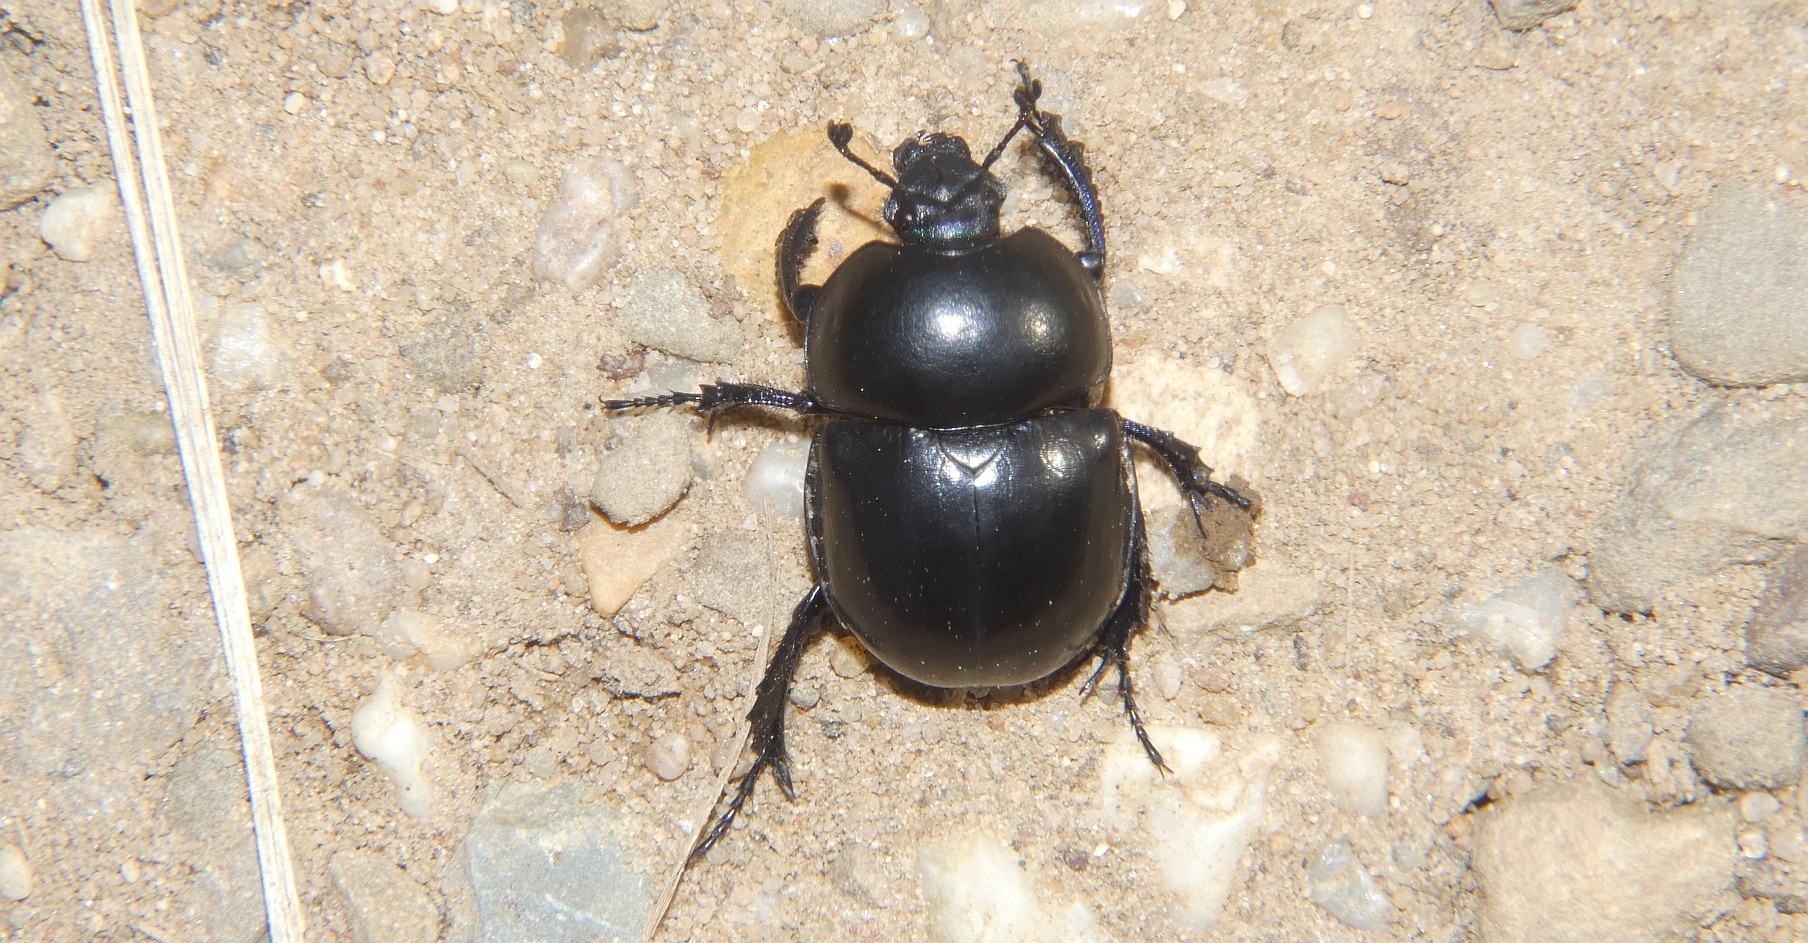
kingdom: Animalia
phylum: Arthropoda
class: Insecta
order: Coleoptera
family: Geotrupidae
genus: Trypocopris
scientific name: Trypocopris vernalis
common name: Spring dumbledor
